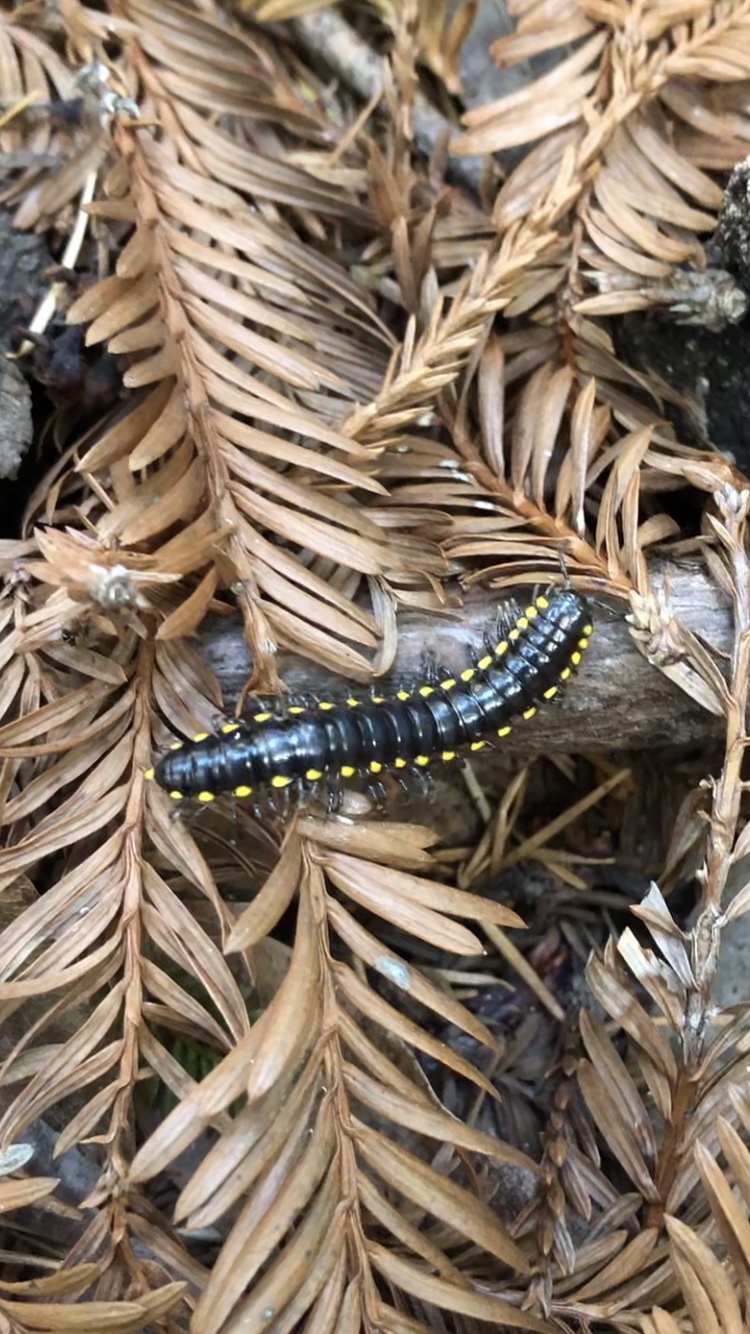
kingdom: Animalia
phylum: Arthropoda
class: Diplopoda
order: Polydesmida
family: Xystodesmidae
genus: Harpaphe
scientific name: Harpaphe scotia
